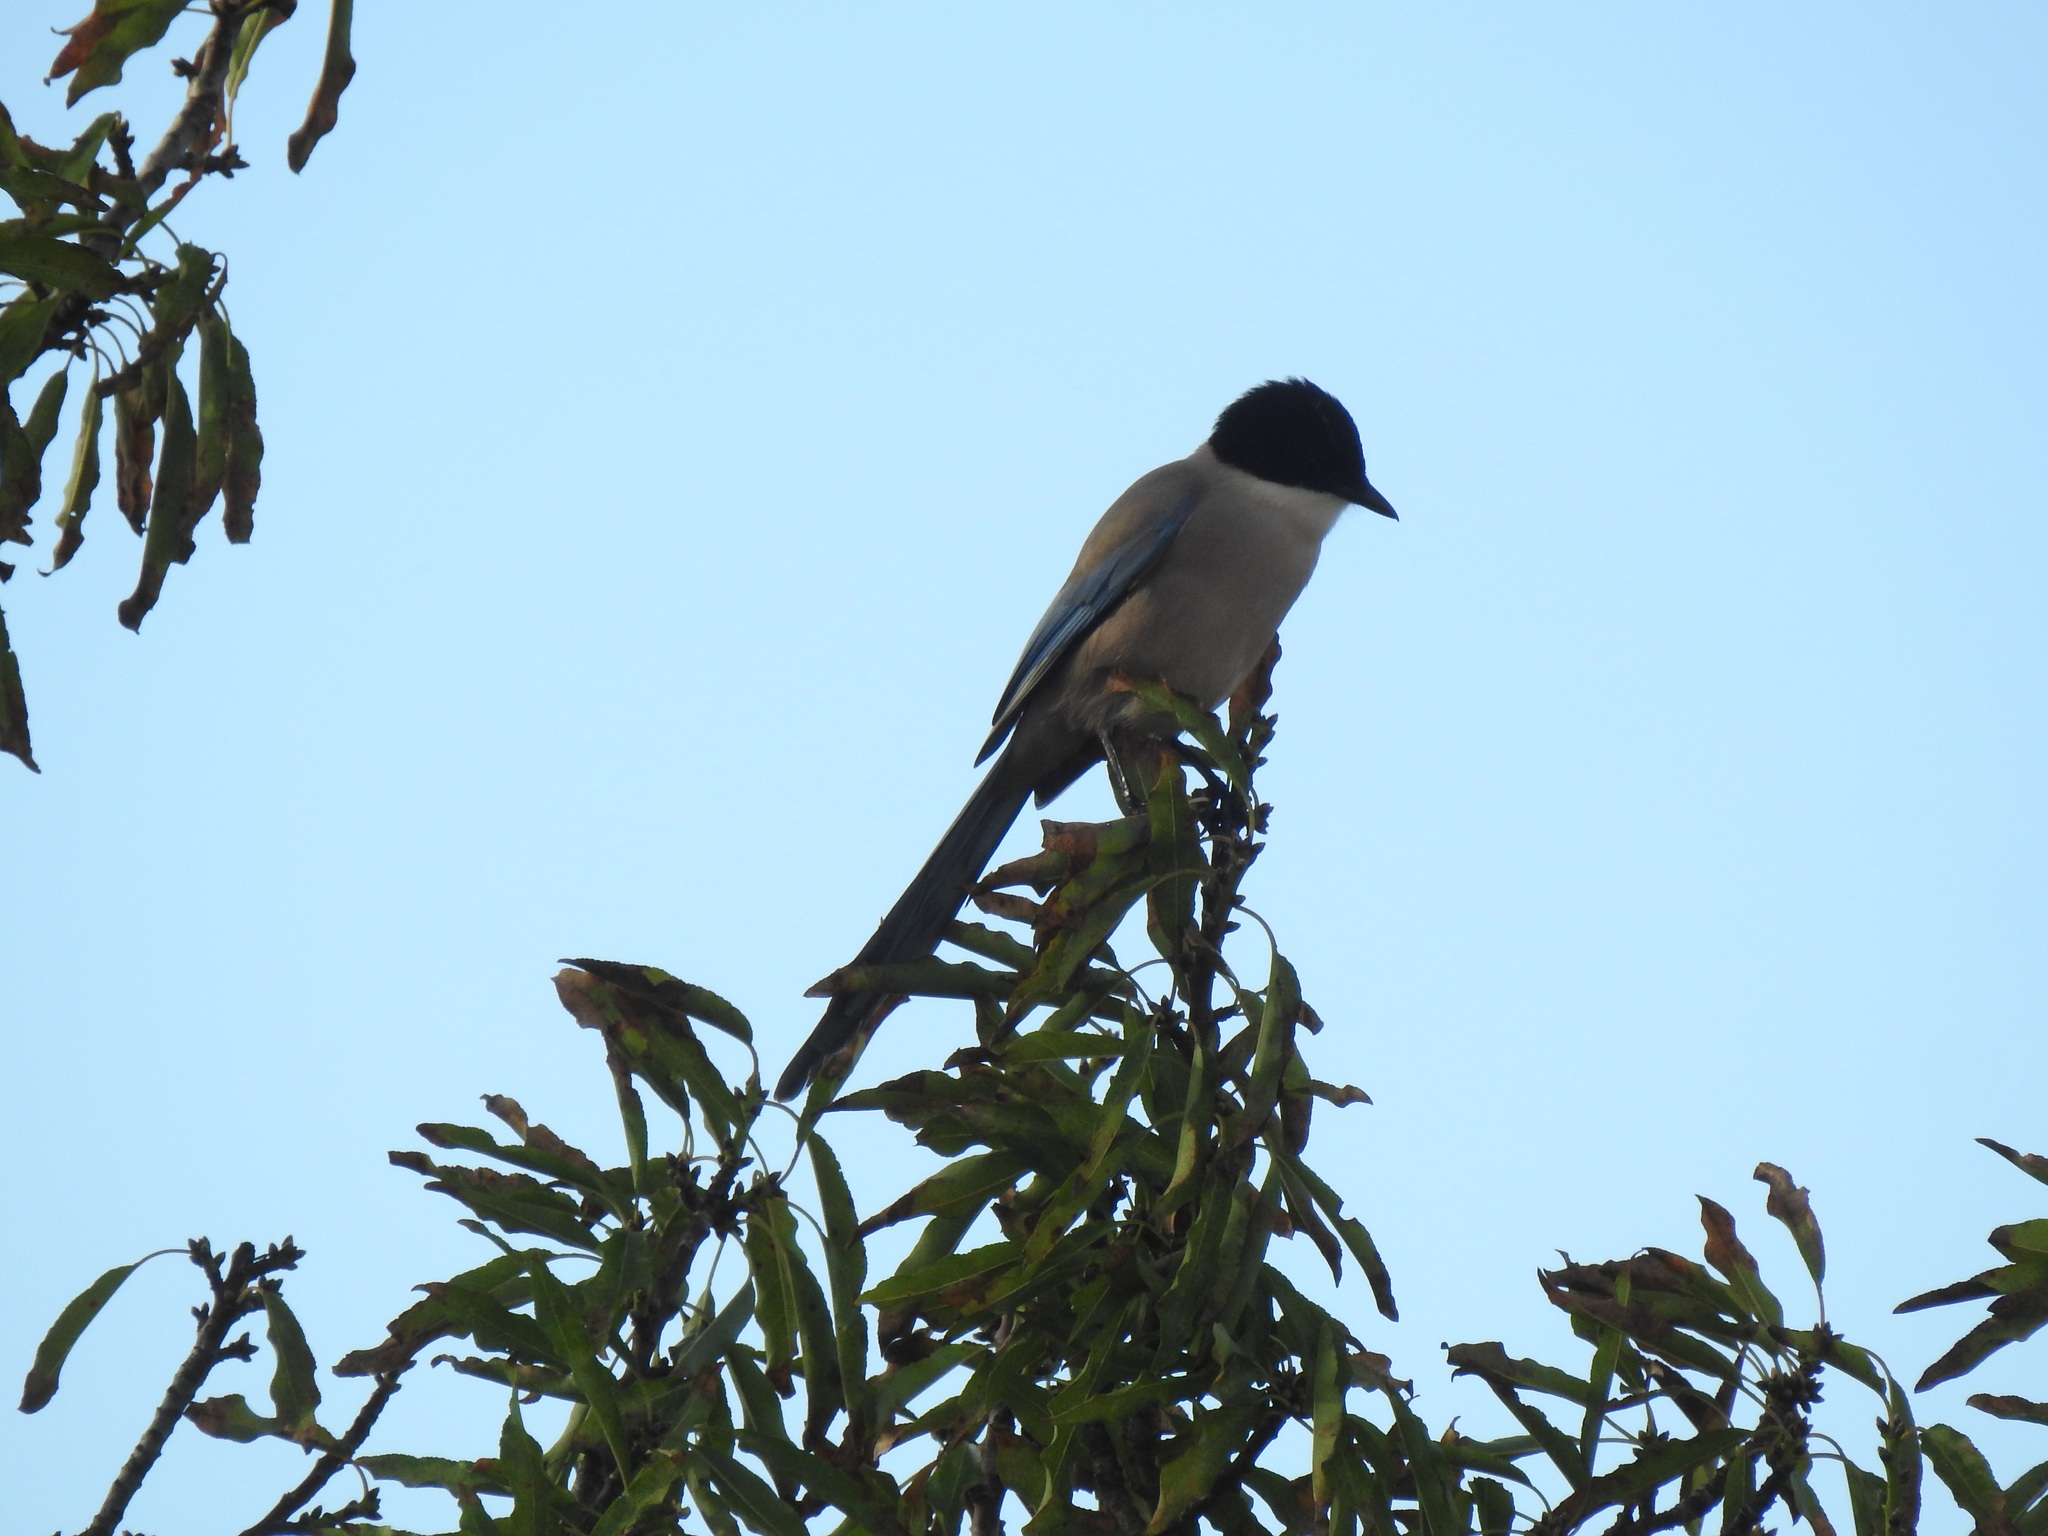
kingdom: Animalia
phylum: Chordata
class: Aves
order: Passeriformes
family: Corvidae
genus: Cyanopica
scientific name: Cyanopica cooki
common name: Iberian magpie
